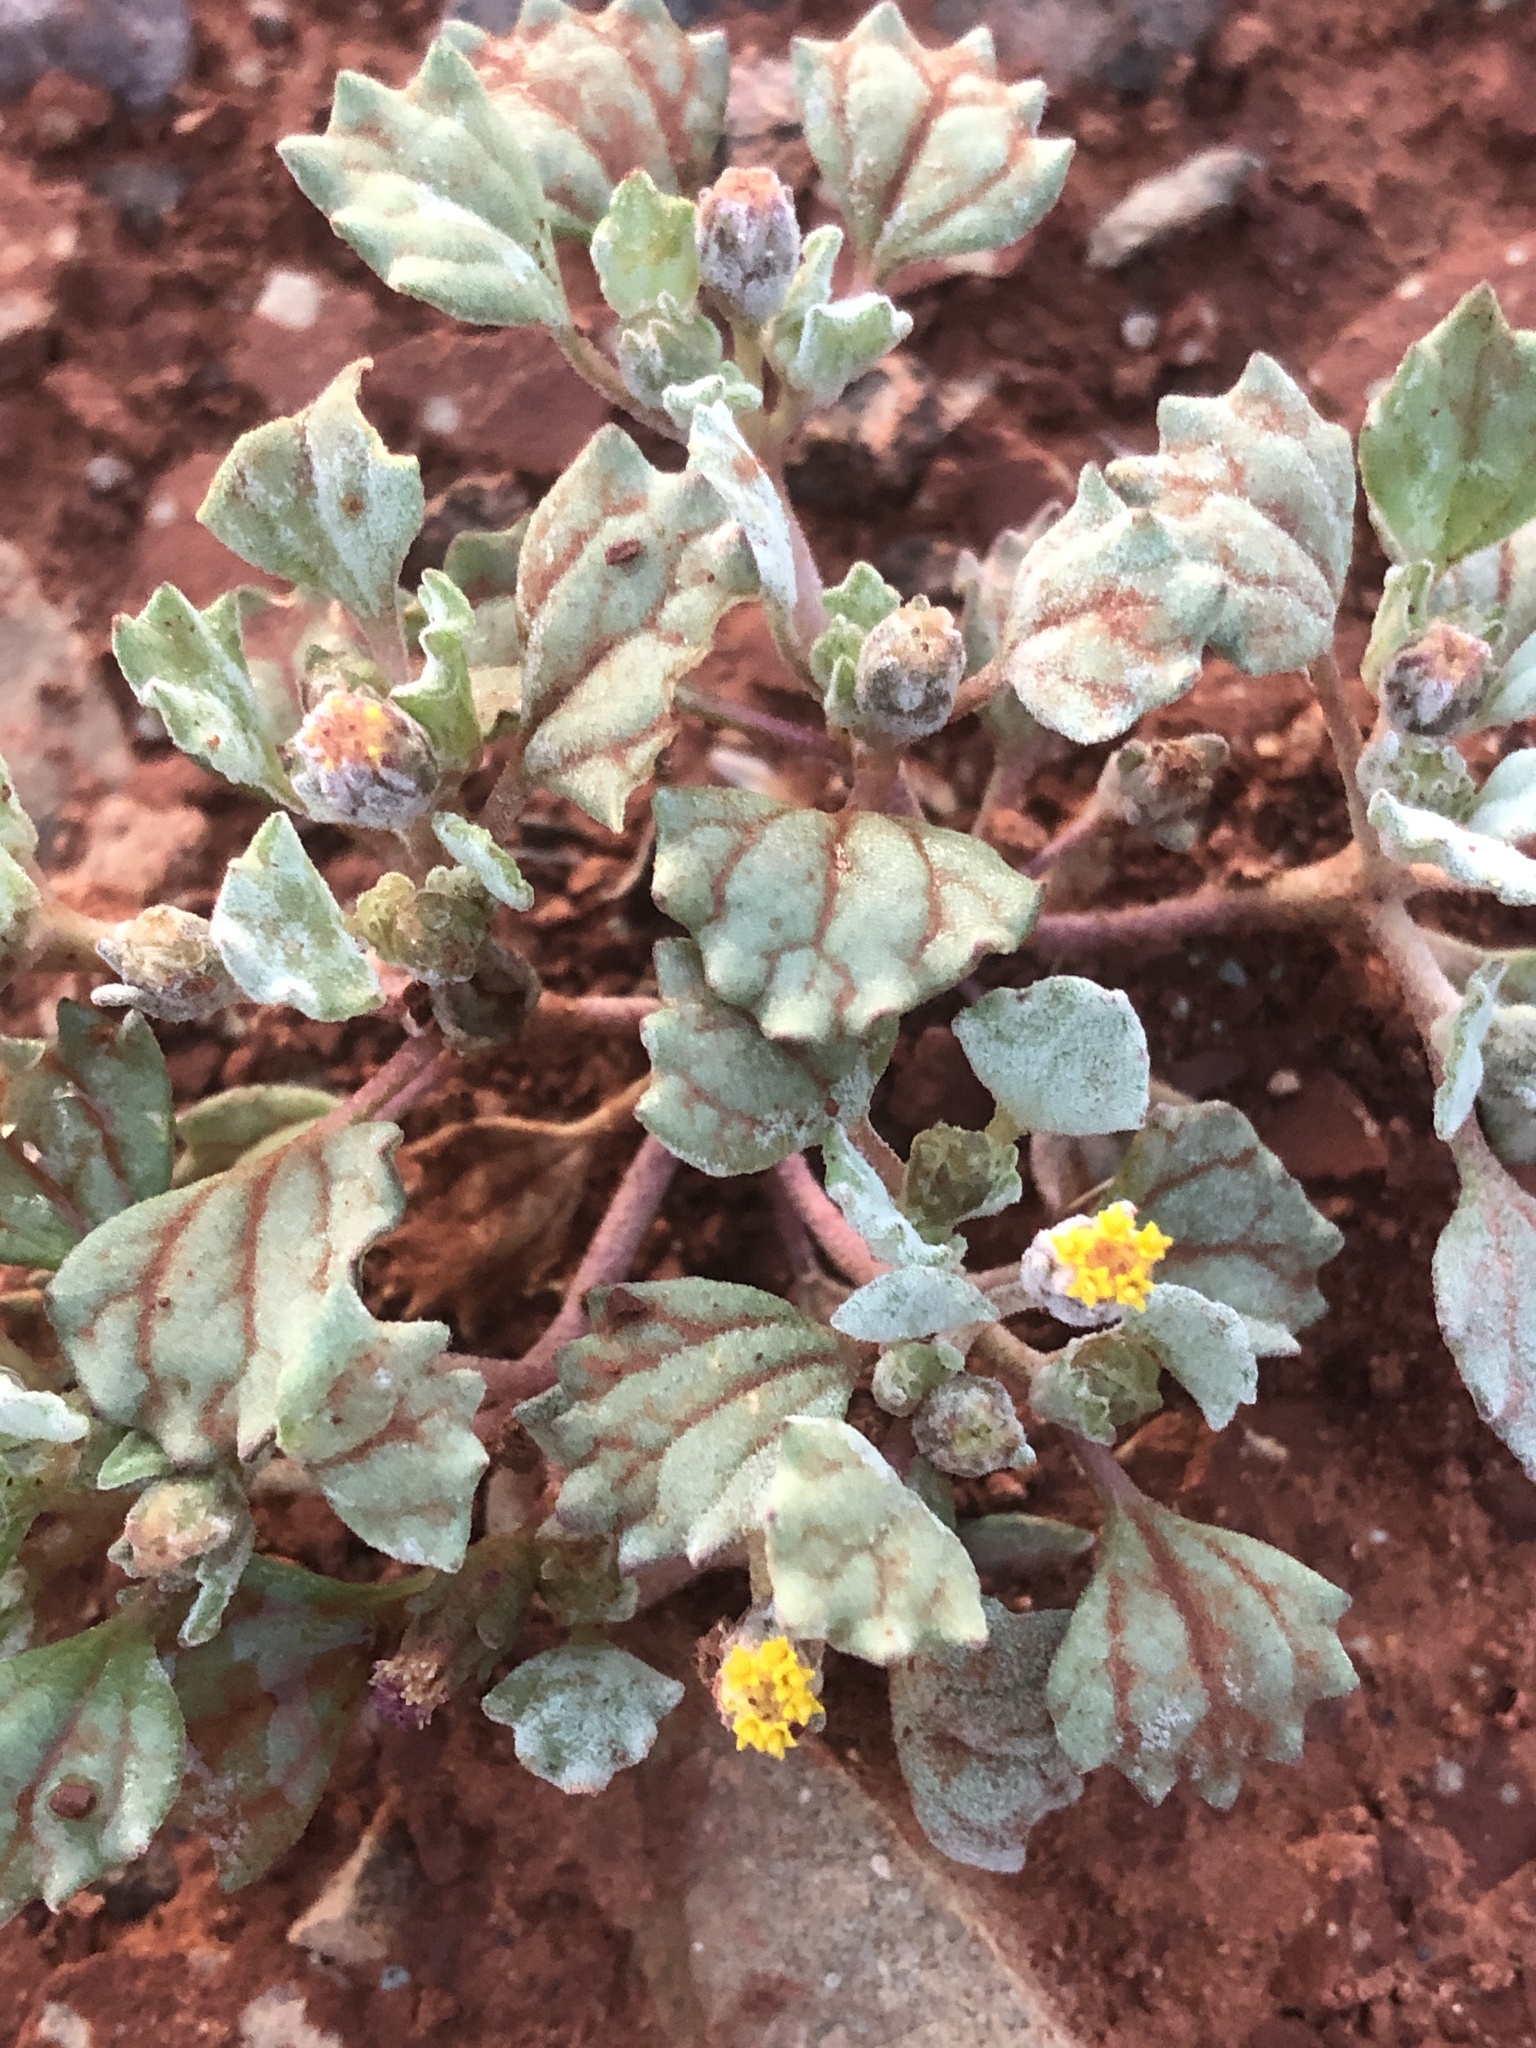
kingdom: Plantae
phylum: Tracheophyta
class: Magnoliopsida
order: Asterales
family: Asteraceae
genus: Psathyrotes
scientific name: Psathyrotes annua
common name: Mealy rosettes
